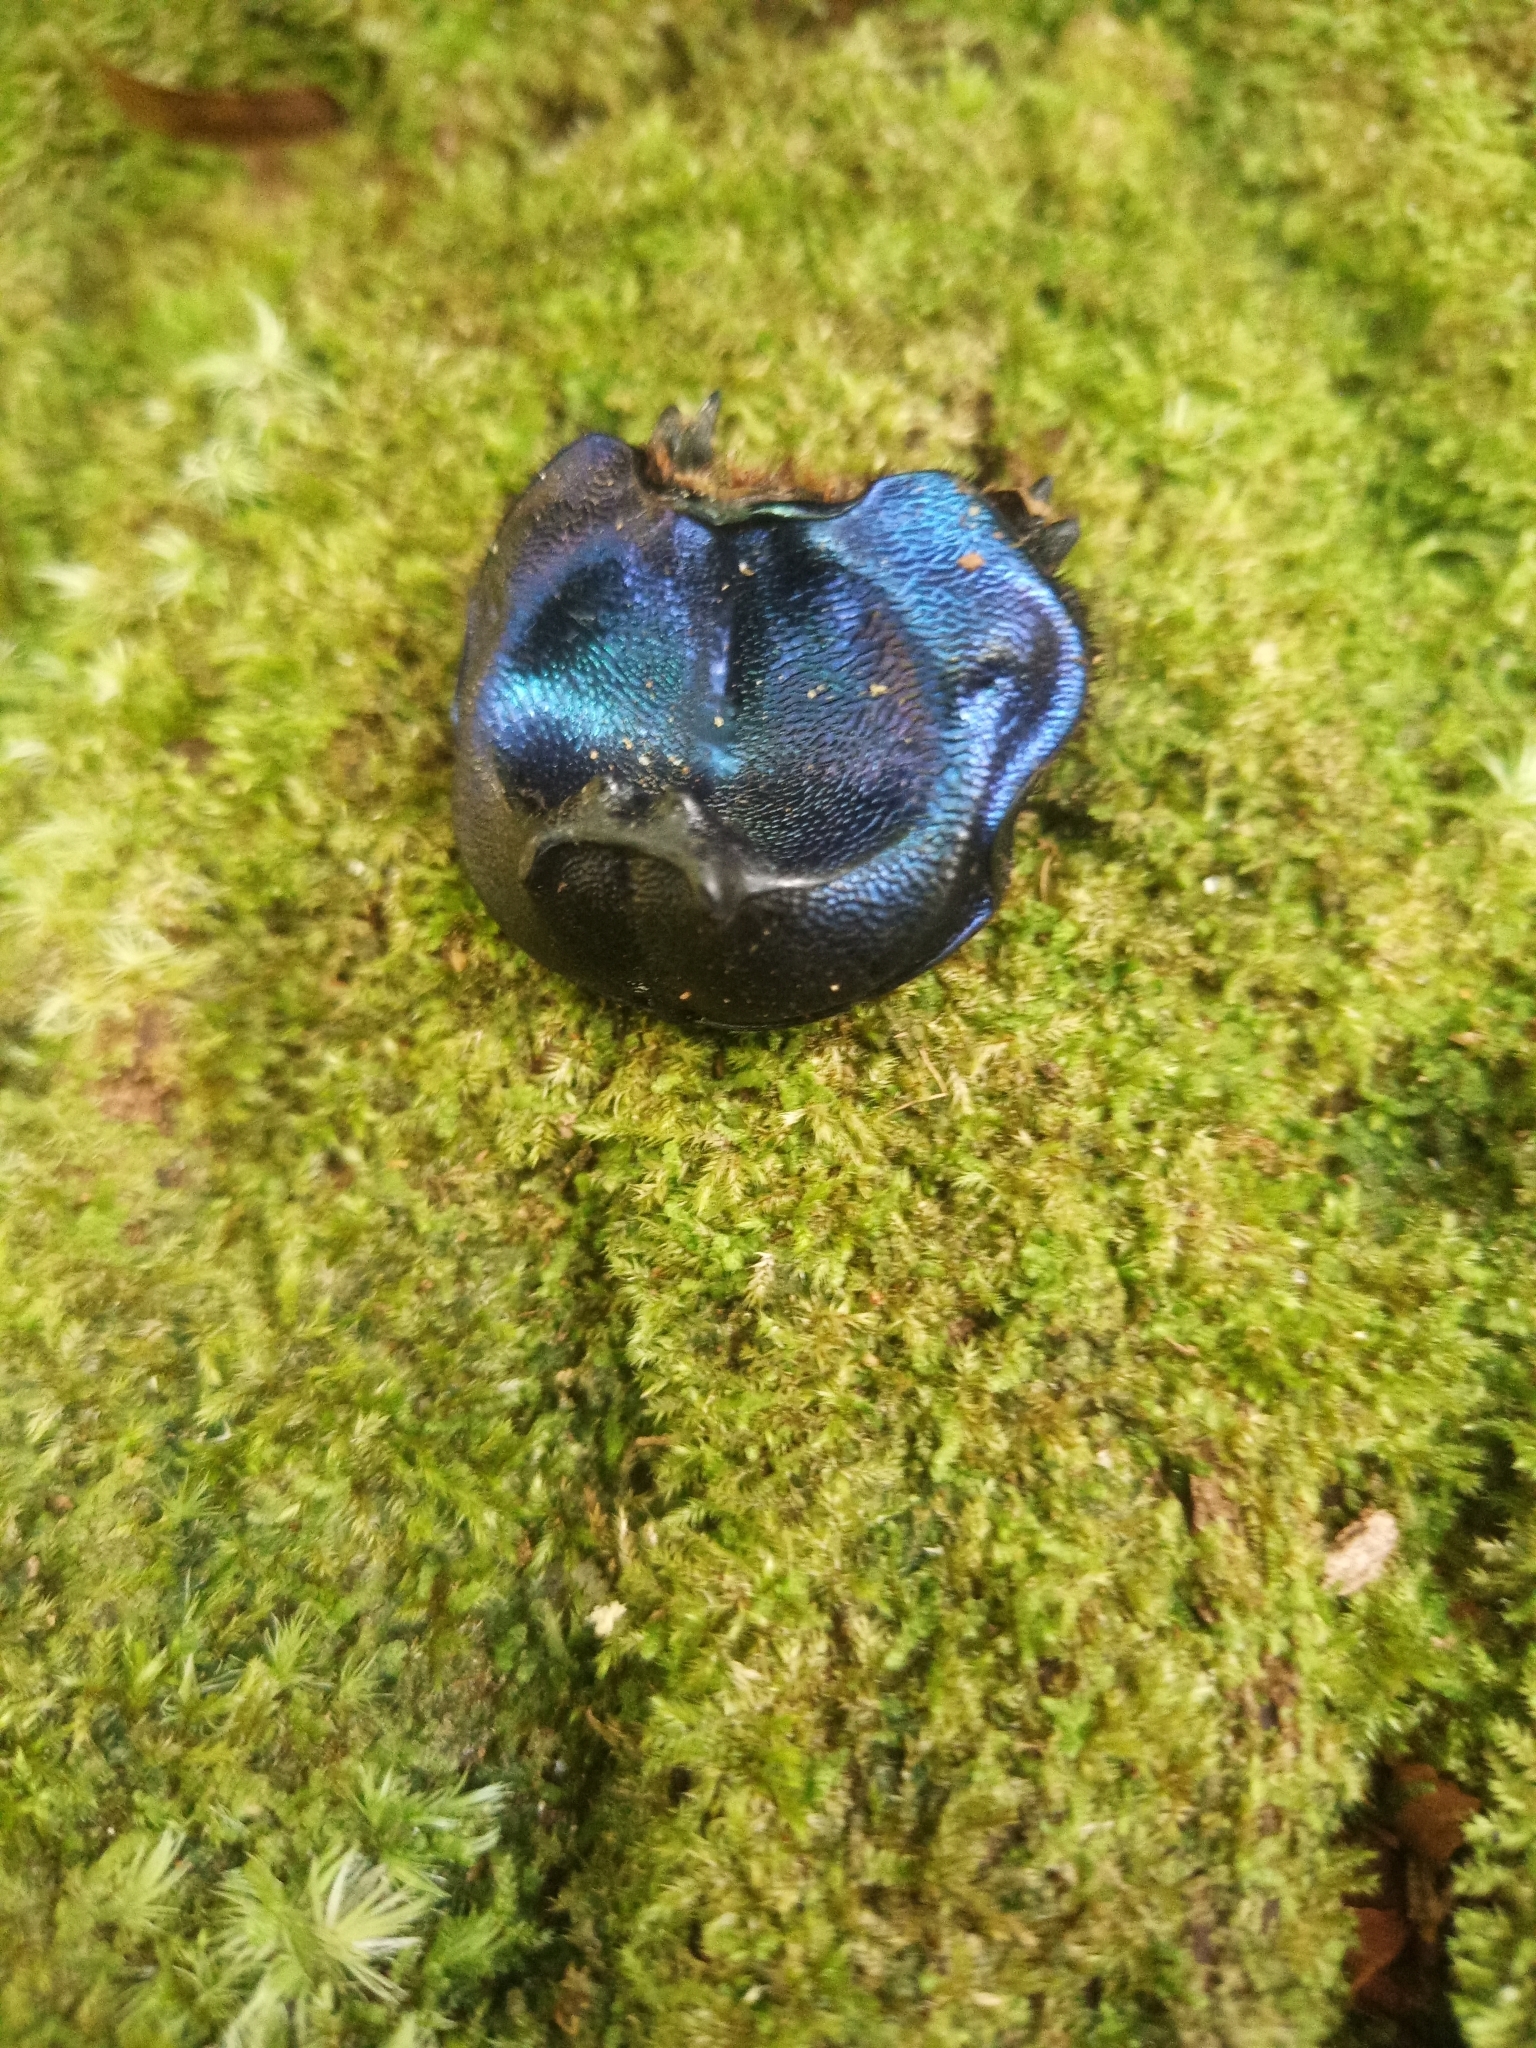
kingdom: Animalia
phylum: Arthropoda
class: Insecta
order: Coleoptera
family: Scarabaeidae
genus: Coprophanaeus
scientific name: Coprophanaeus lancifer
